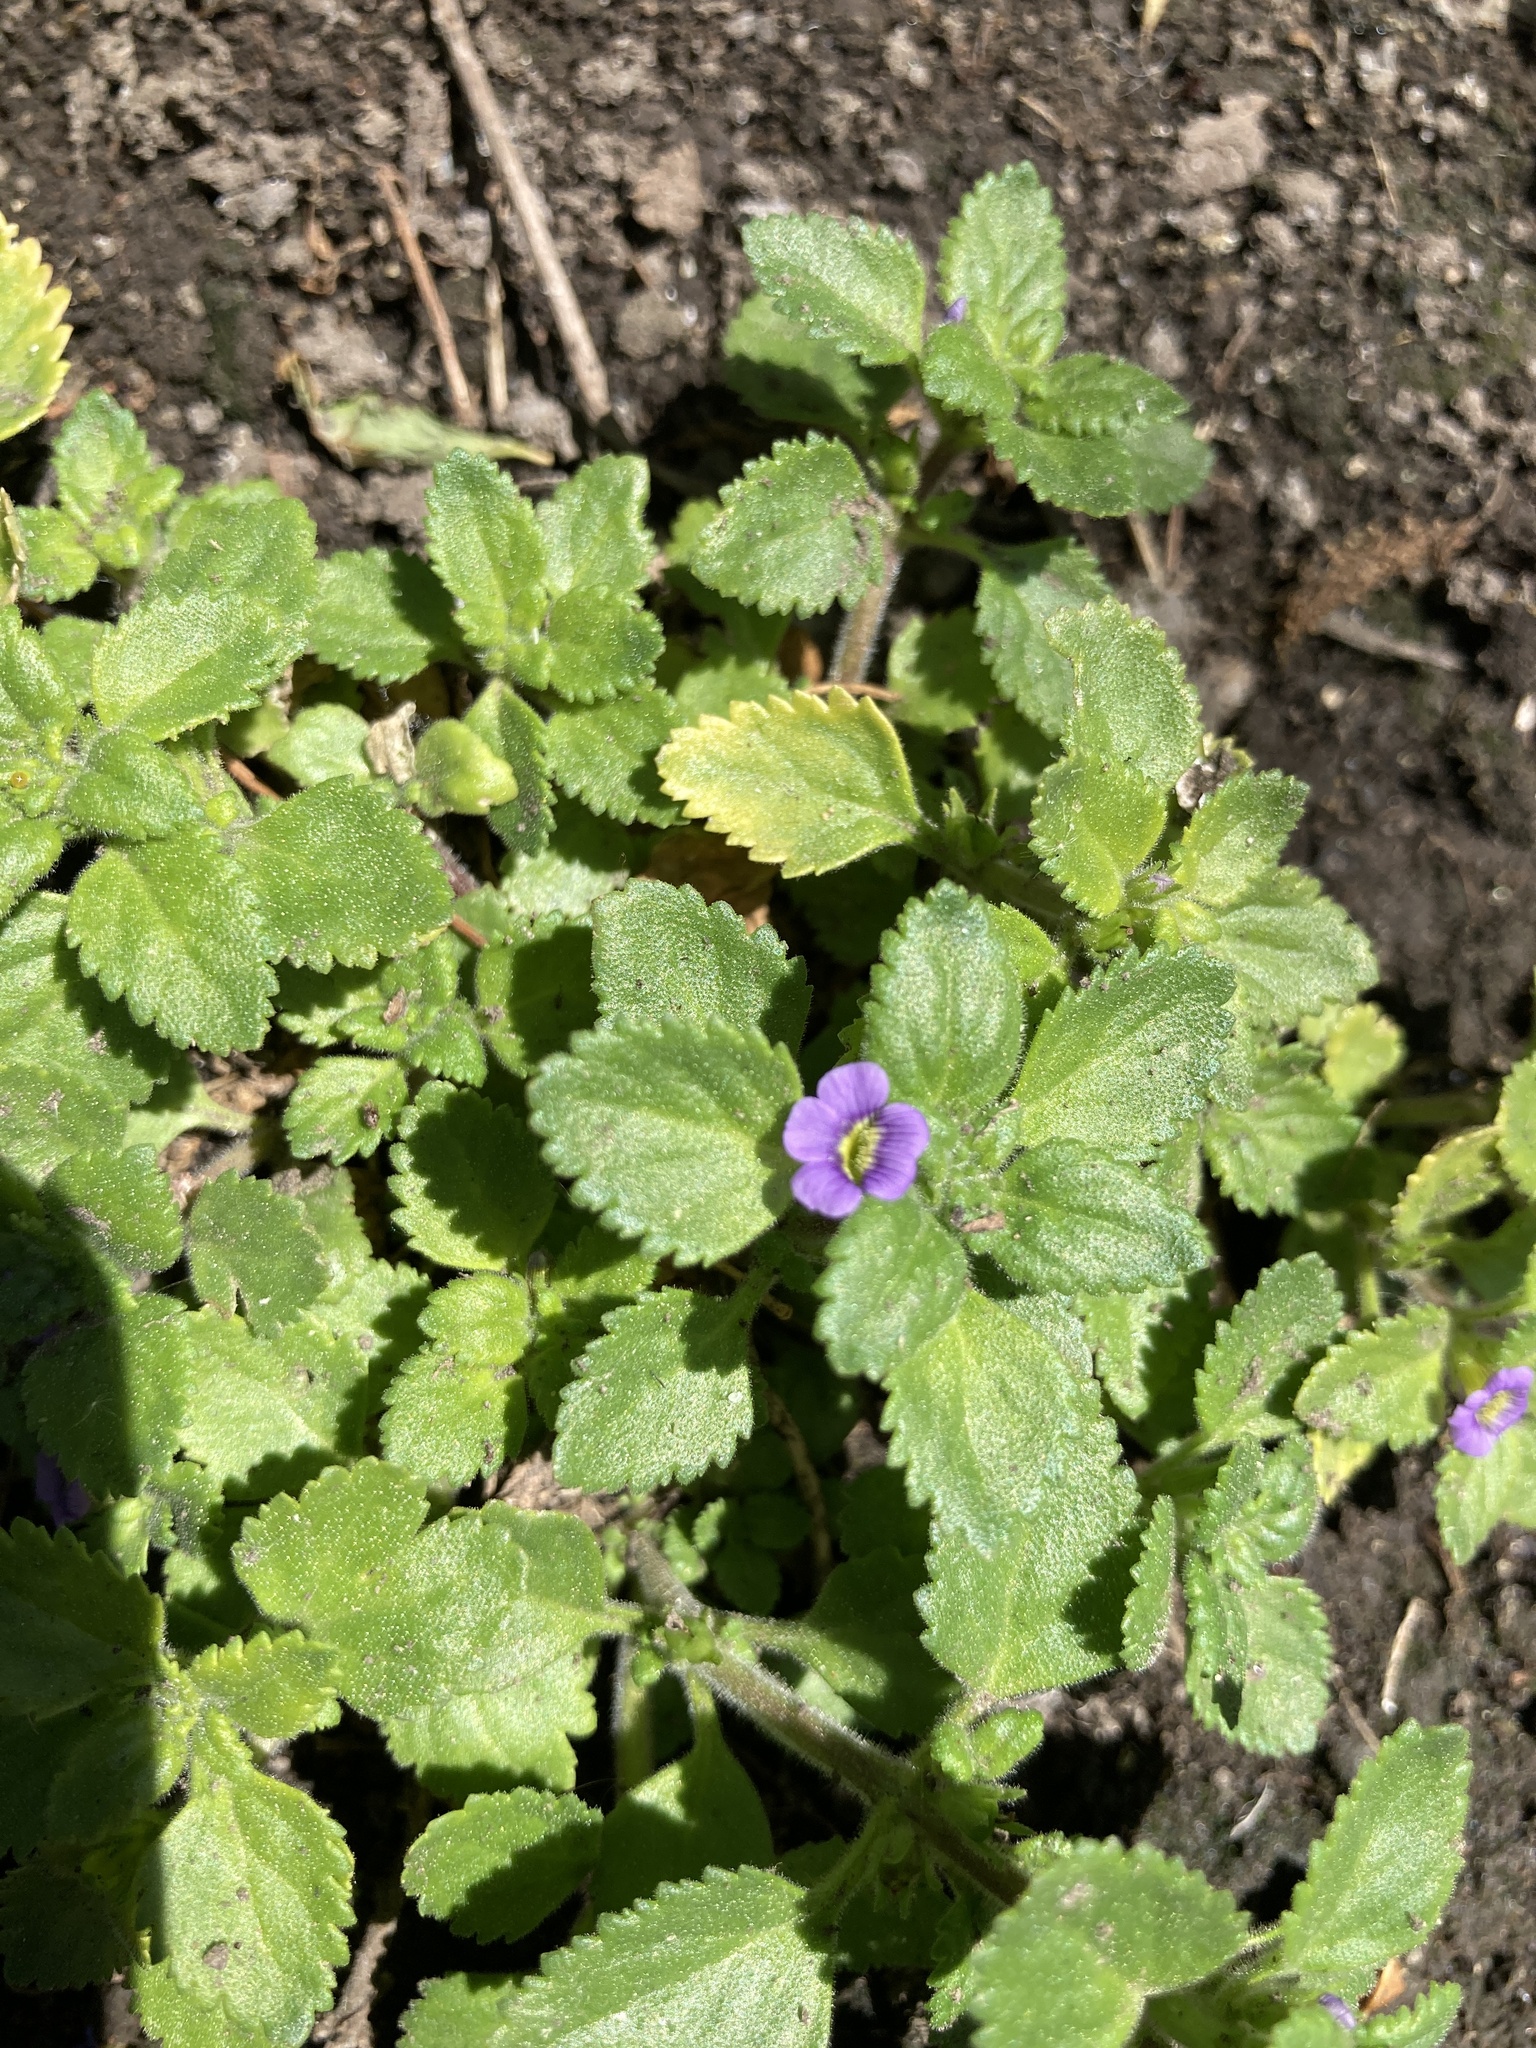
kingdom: Plantae
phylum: Tracheophyta
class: Magnoliopsida
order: Lamiales
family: Plantaginaceae
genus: Stemodia
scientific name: Stemodia verticillata
